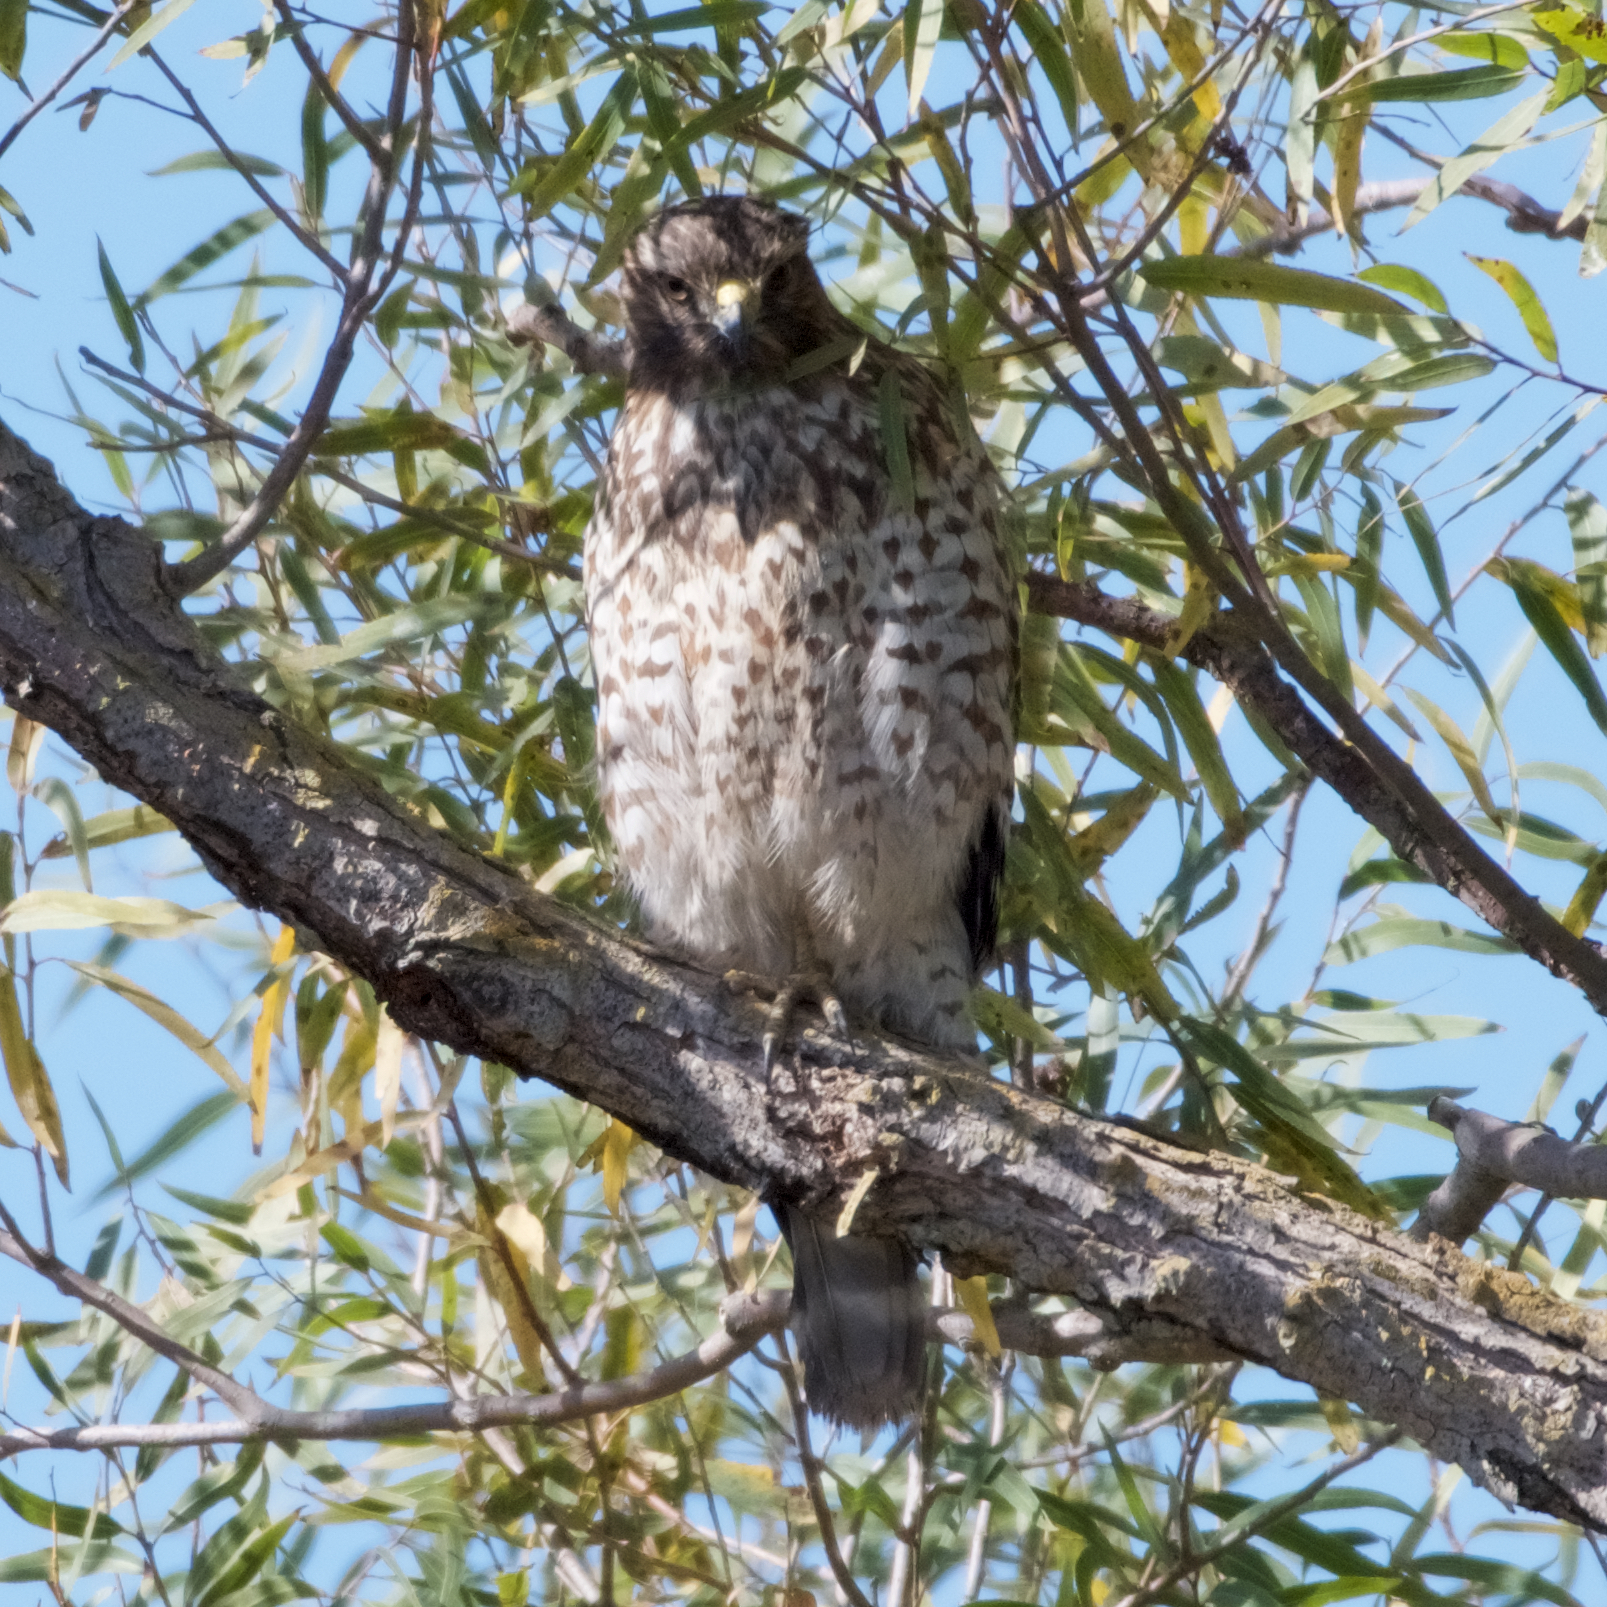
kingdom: Animalia
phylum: Chordata
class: Aves
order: Accipitriformes
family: Accipitridae
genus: Buteo
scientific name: Buteo lineatus
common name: Red-shouldered hawk
